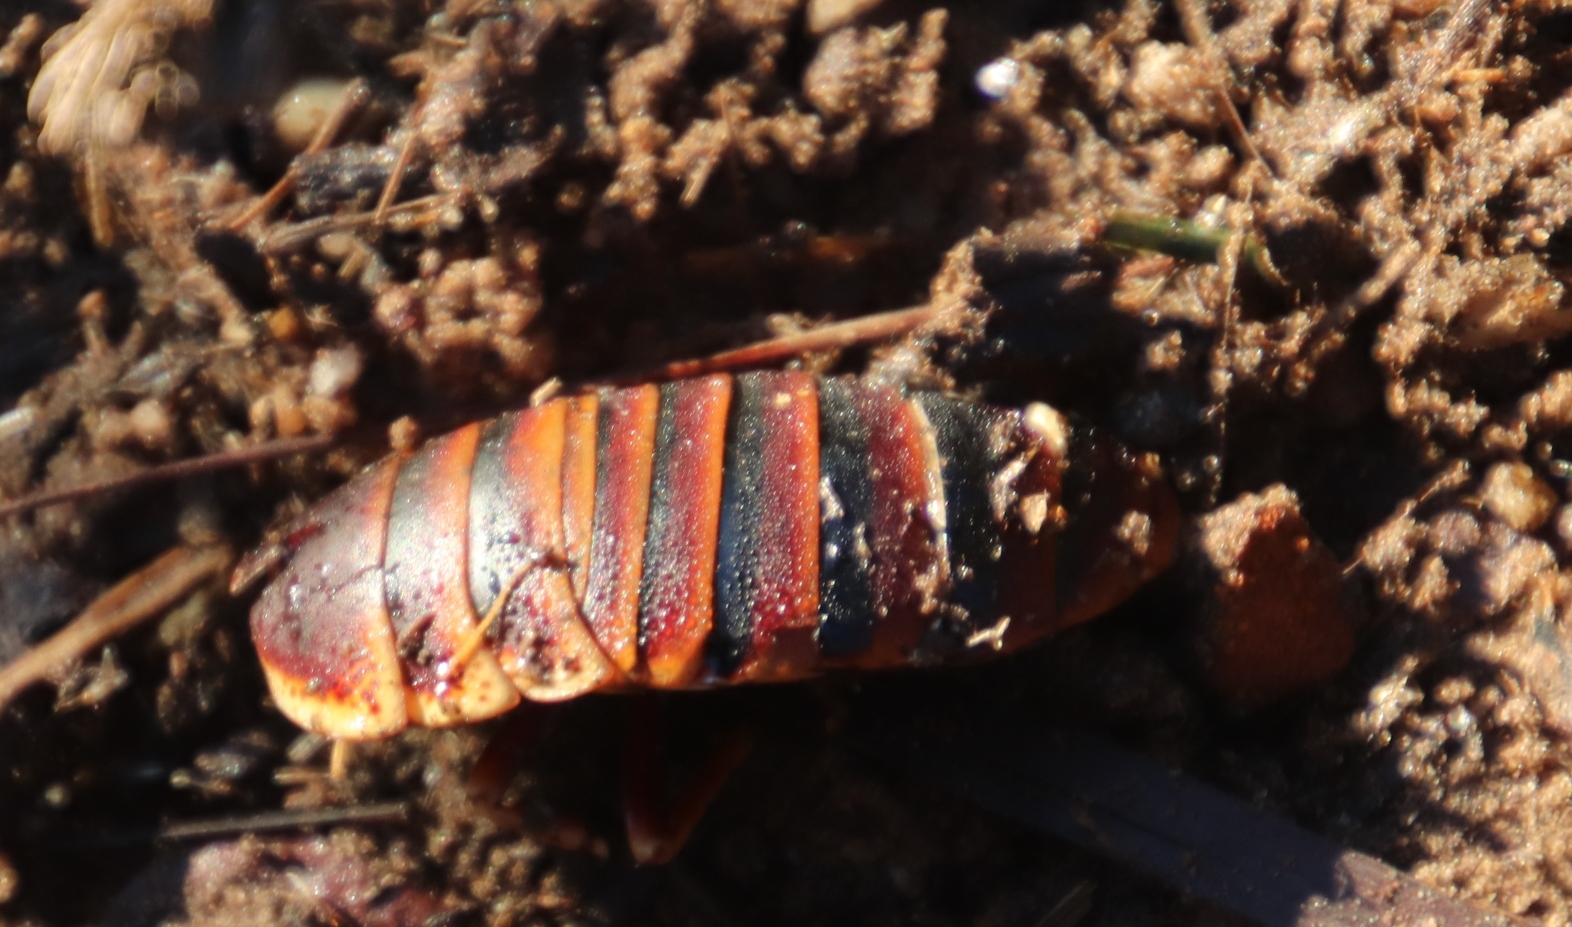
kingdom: Animalia
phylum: Arthropoda
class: Insecta
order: Blattodea
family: Blaberidae
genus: Aptera
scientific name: Aptera fusca
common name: Cape mountain cockroach
